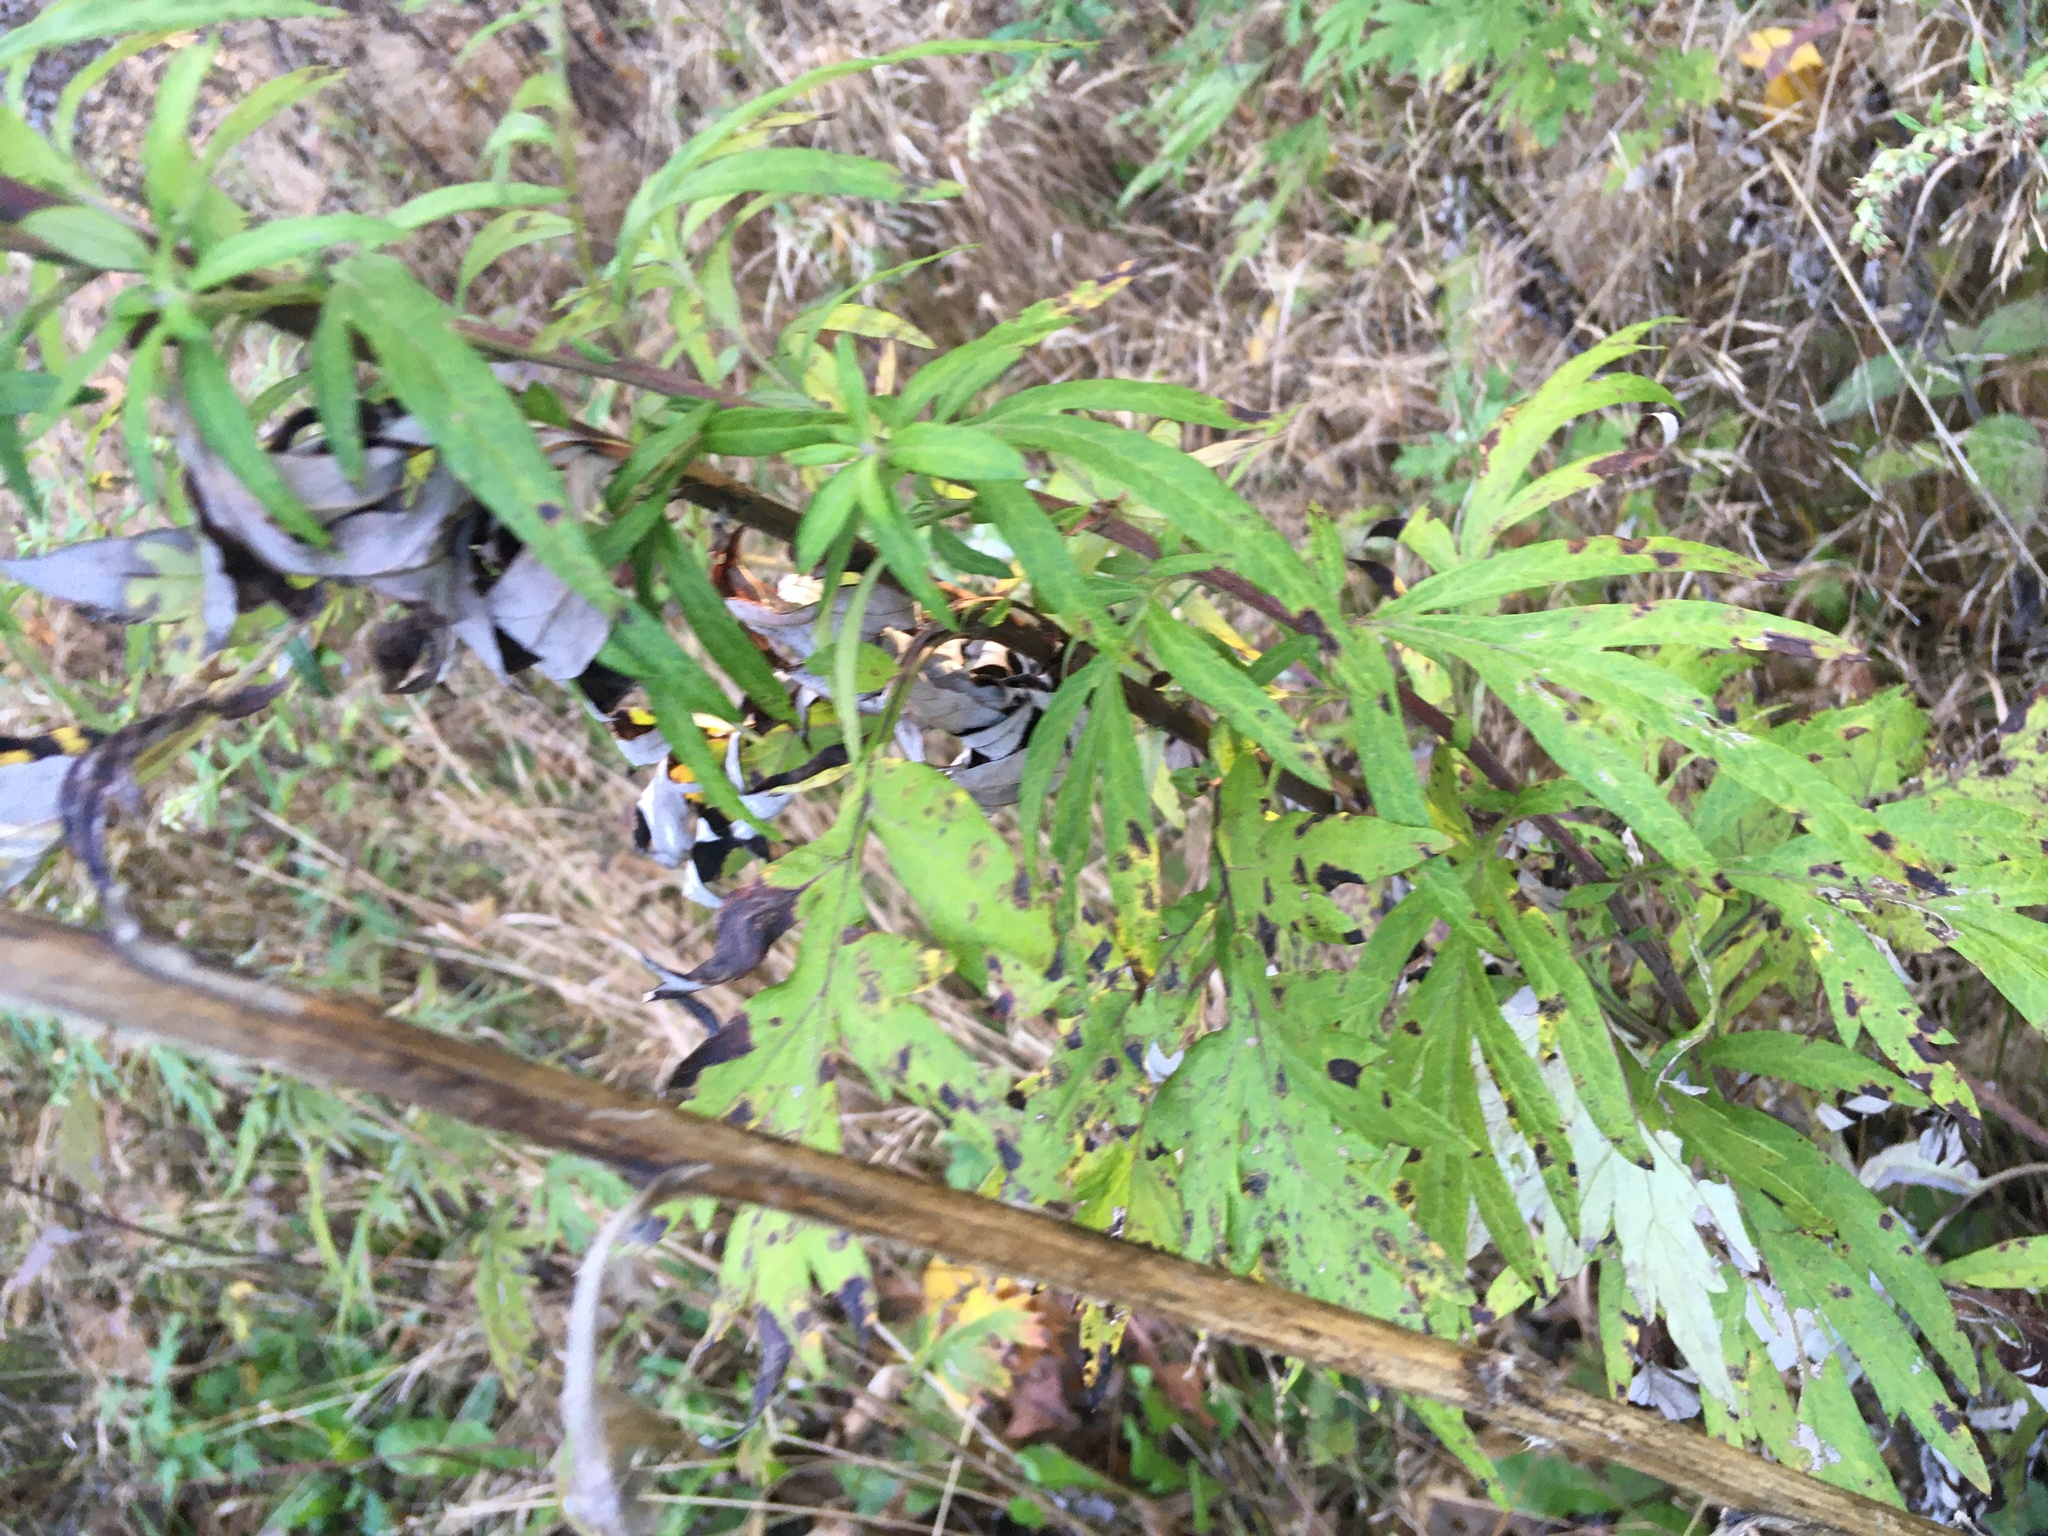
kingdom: Plantae
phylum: Tracheophyta
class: Magnoliopsida
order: Asterales
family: Asteraceae
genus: Artemisia
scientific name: Artemisia vulgaris
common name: Mugwort
